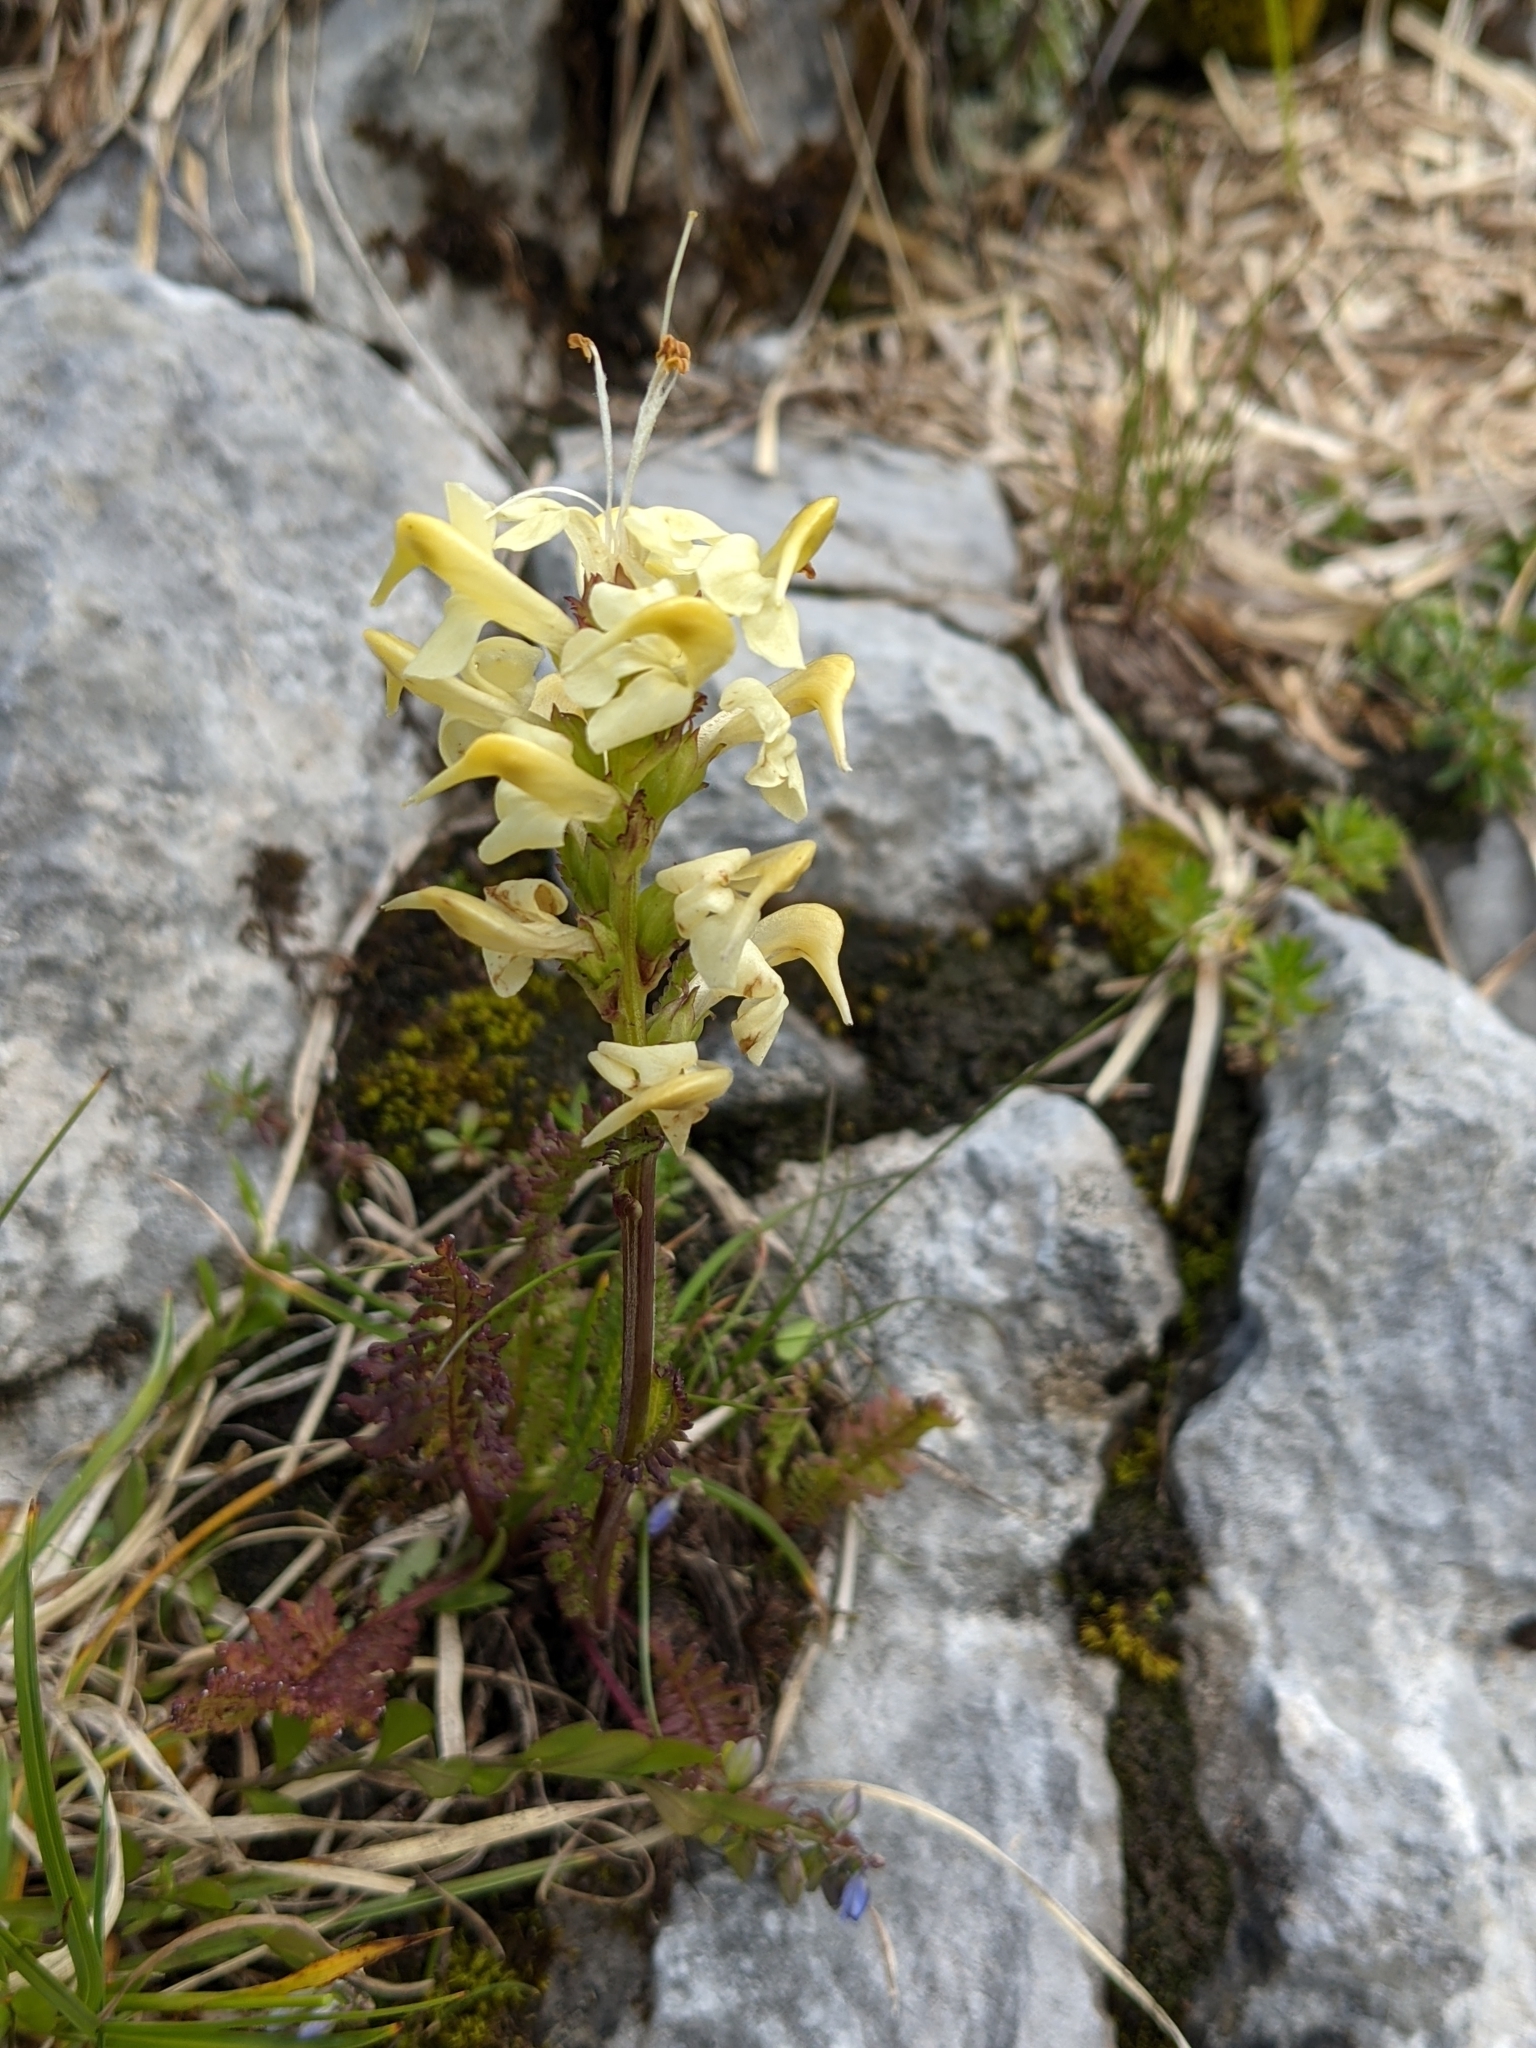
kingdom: Plantae
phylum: Tracheophyta
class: Magnoliopsida
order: Lamiales
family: Orobanchaceae
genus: Pedicularis
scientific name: Pedicularis ascendens
